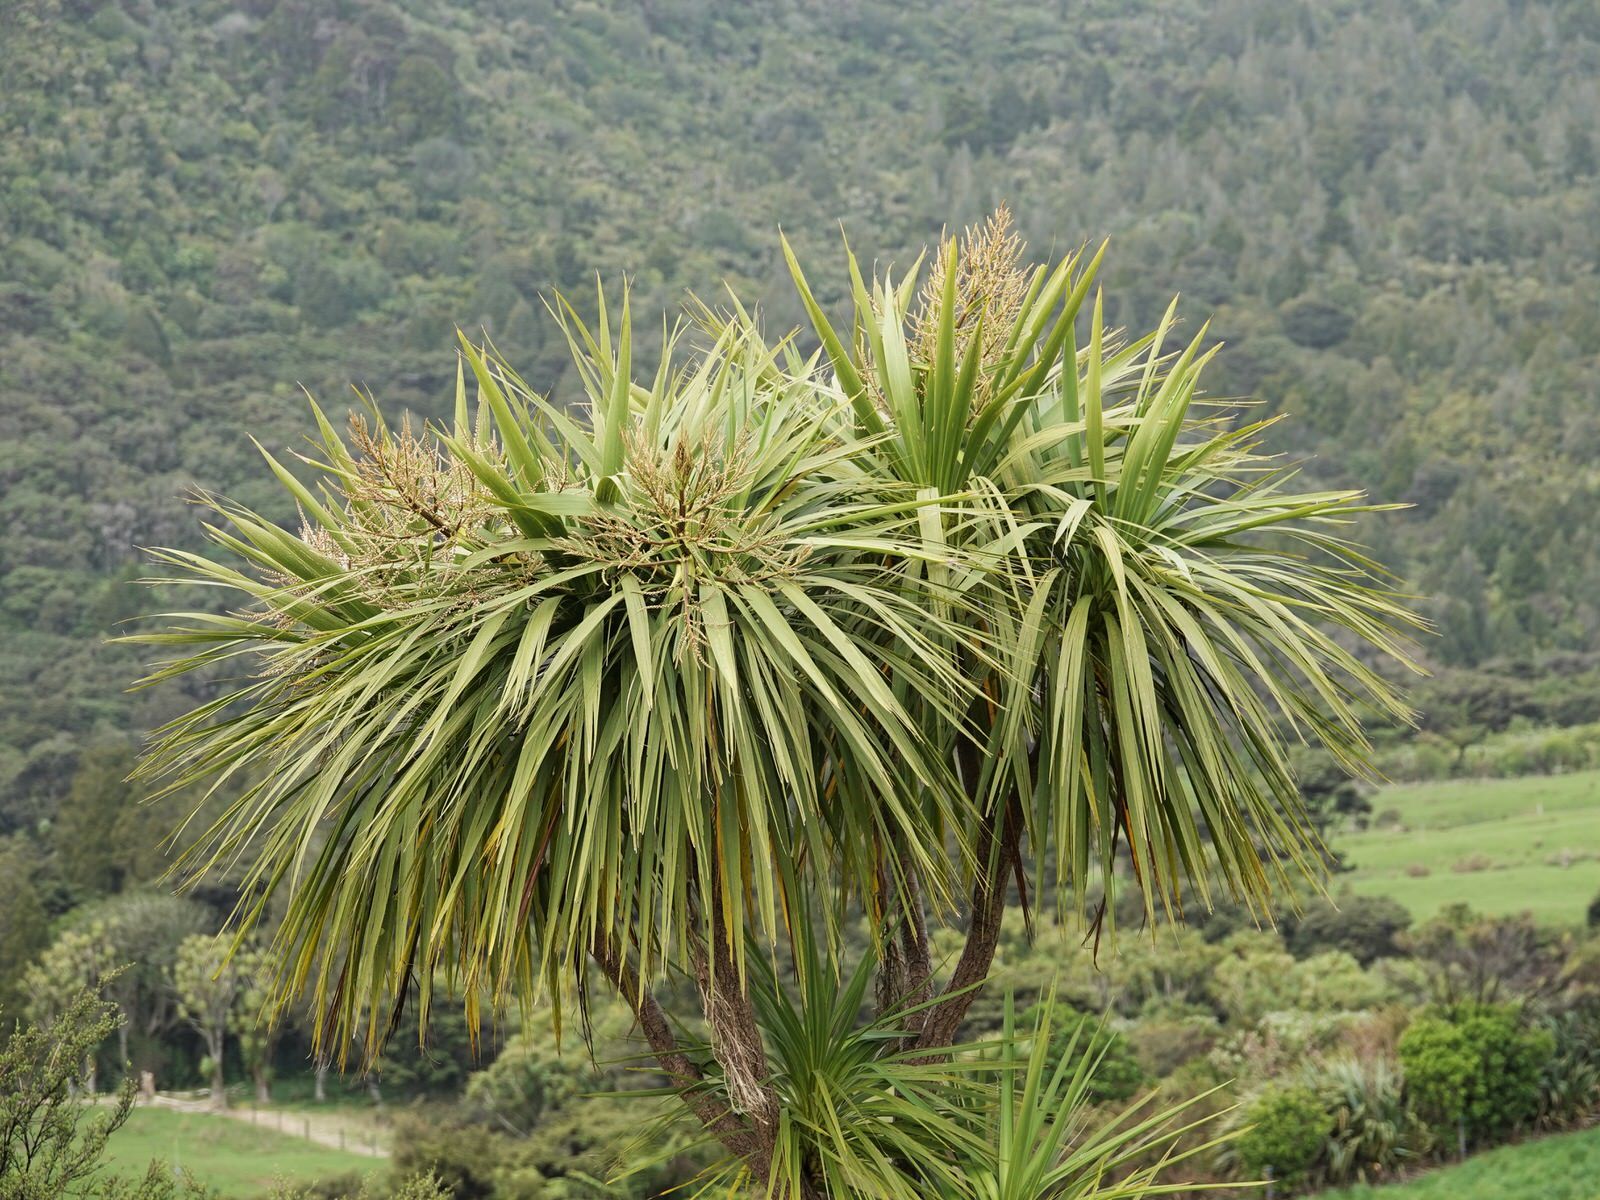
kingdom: Plantae
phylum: Tracheophyta
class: Liliopsida
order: Asparagales
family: Asparagaceae
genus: Cordyline
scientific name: Cordyline australis
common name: Cabbage-palm
